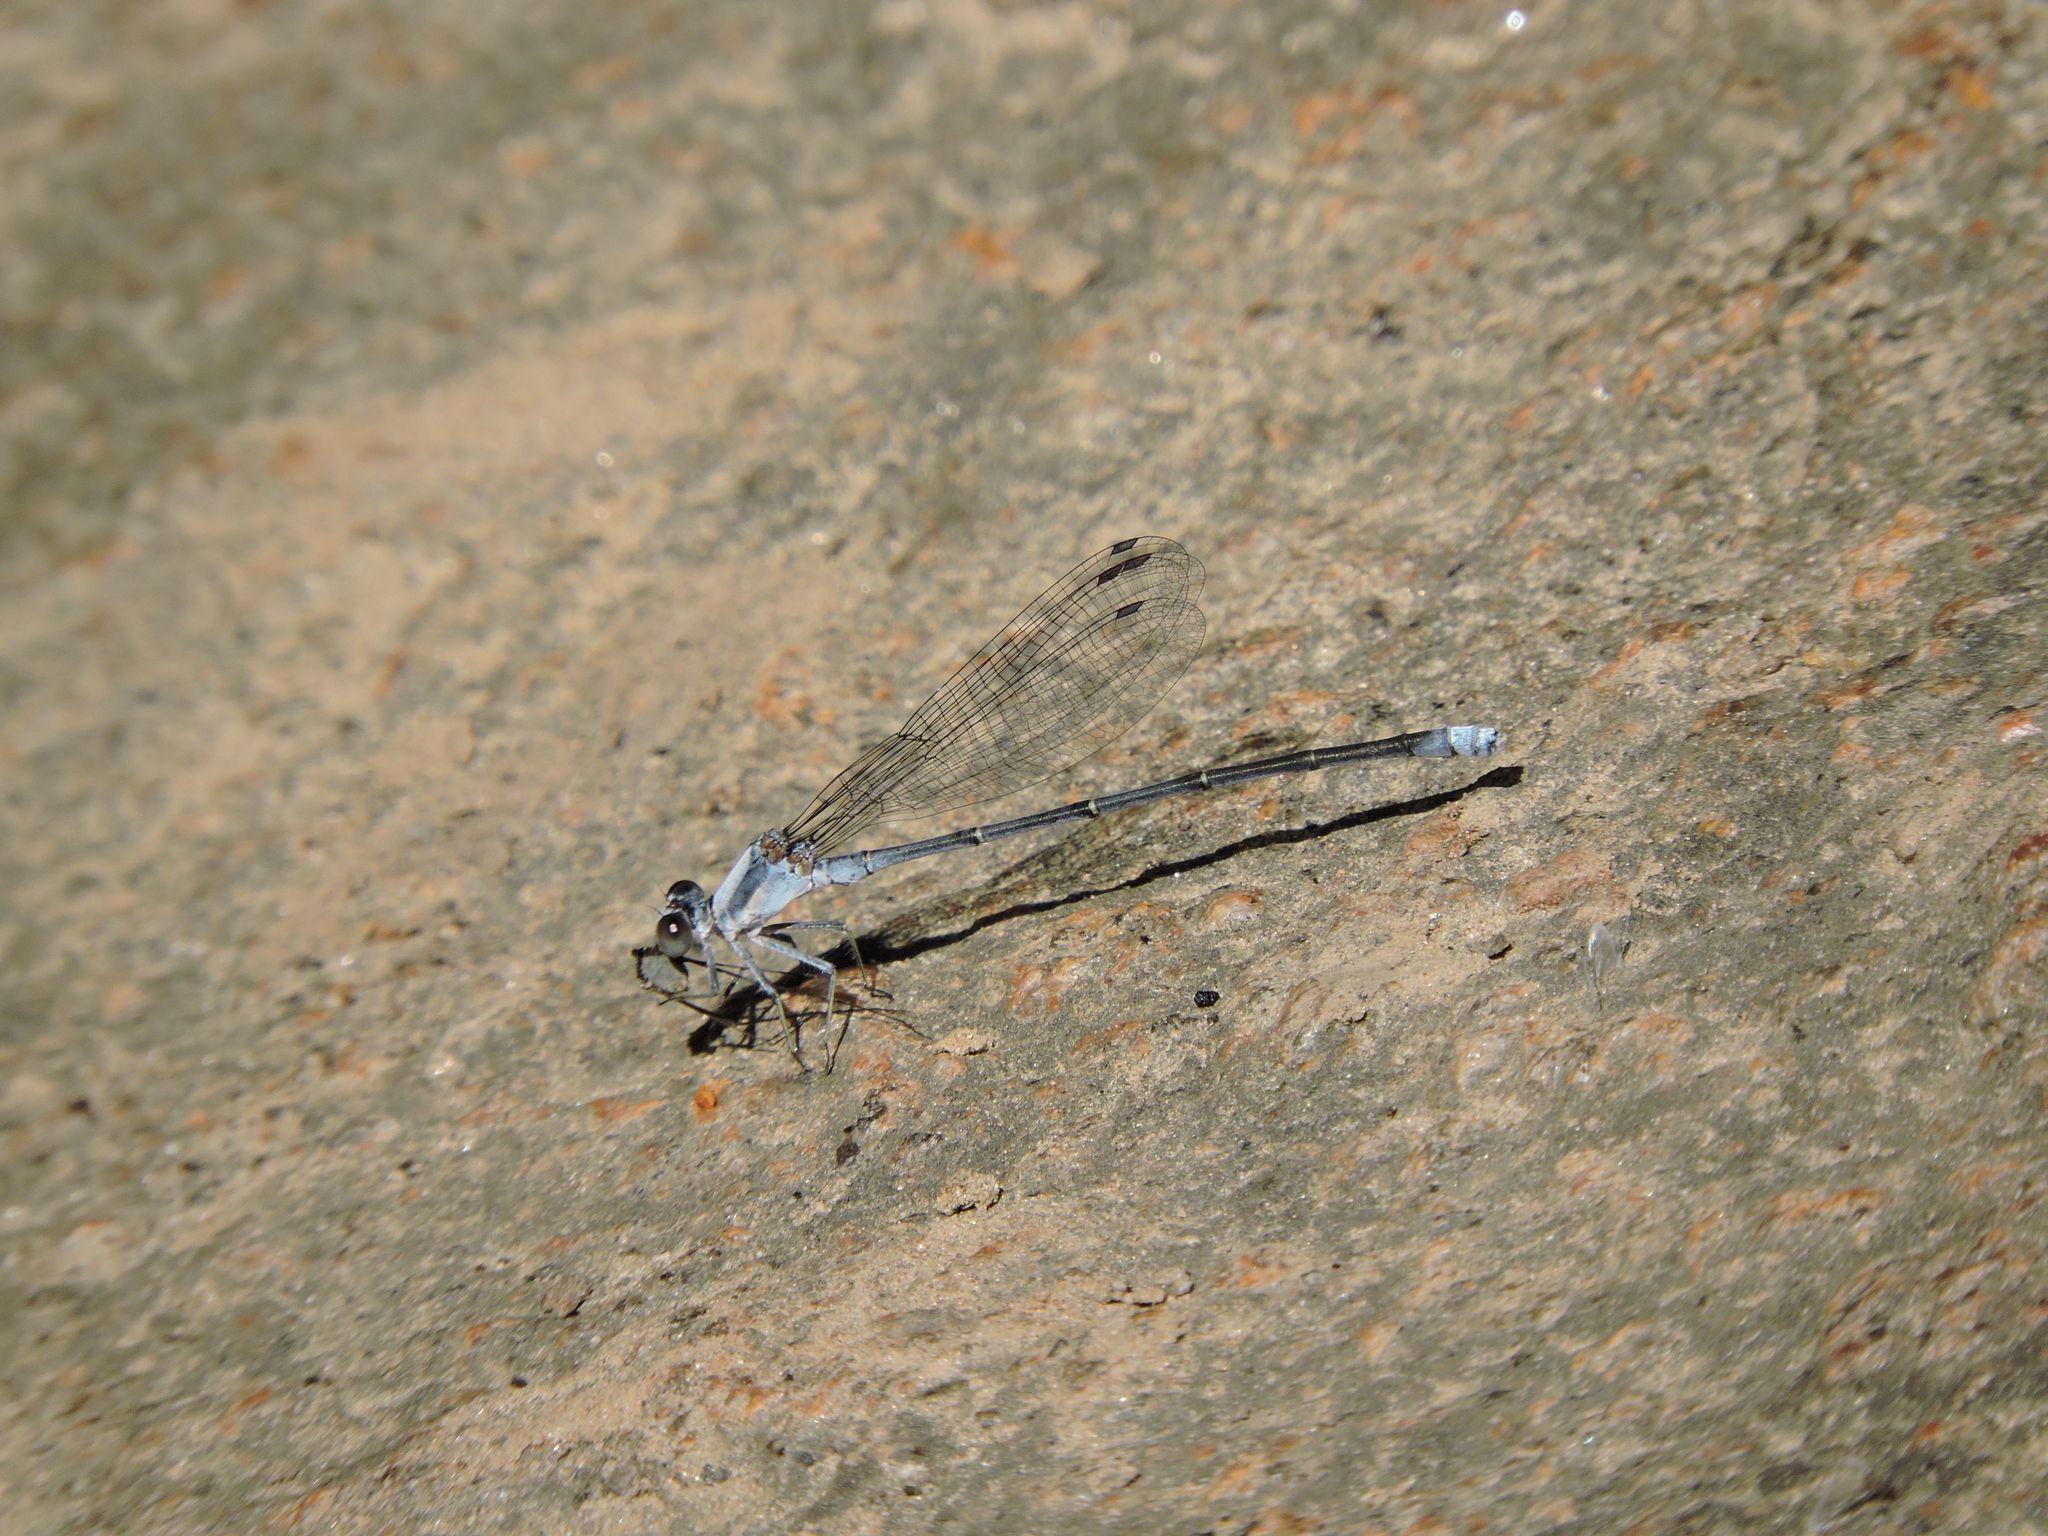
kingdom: Animalia
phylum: Arthropoda
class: Insecta
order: Odonata
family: Coenagrionidae
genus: Argia
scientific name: Argia moesta
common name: Powdered dancer
